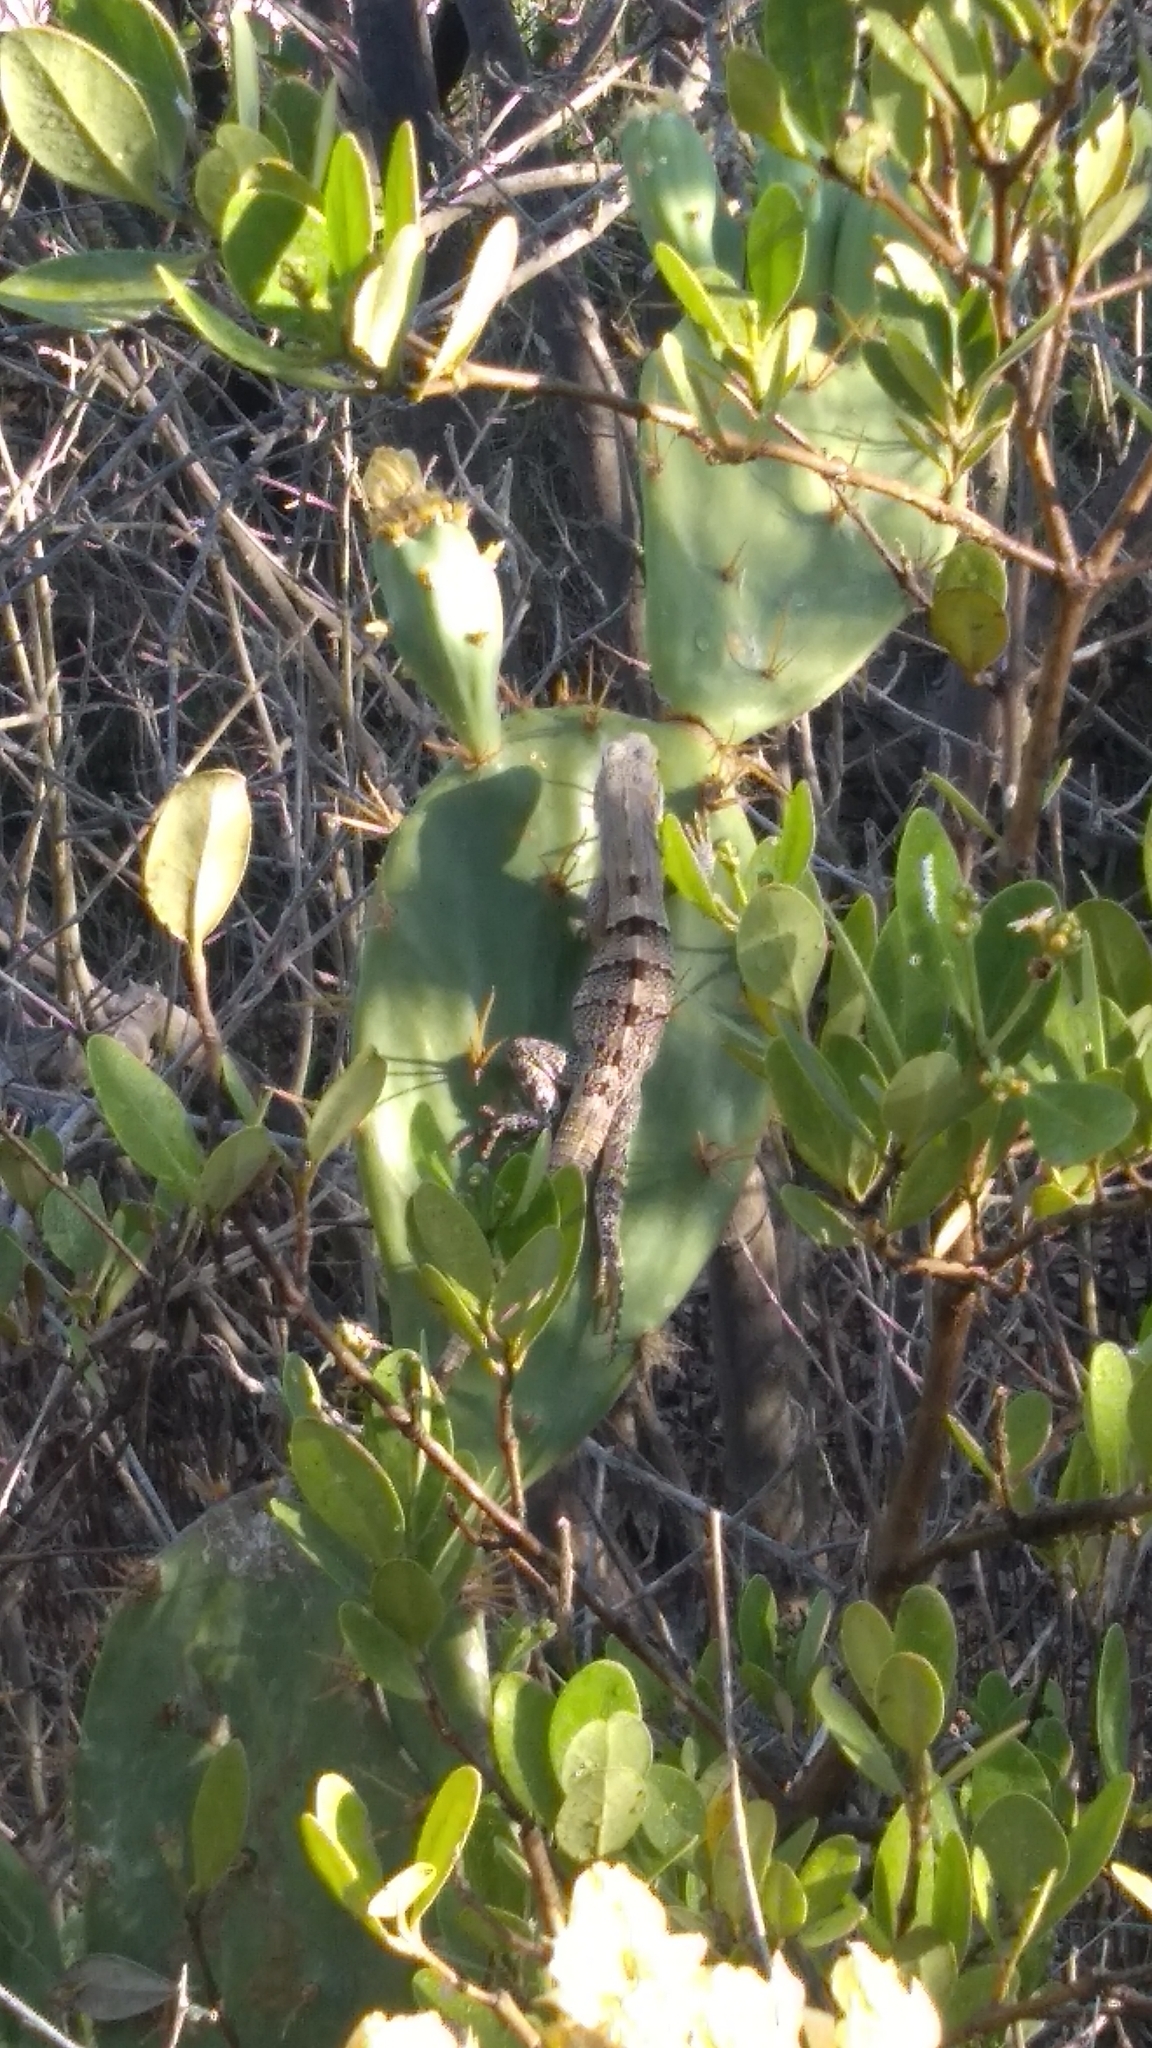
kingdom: Animalia
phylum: Chordata
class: Squamata
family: Iguanidae
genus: Ctenosaura
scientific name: Ctenosaura similis
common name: Black spiny-tailed iguana
